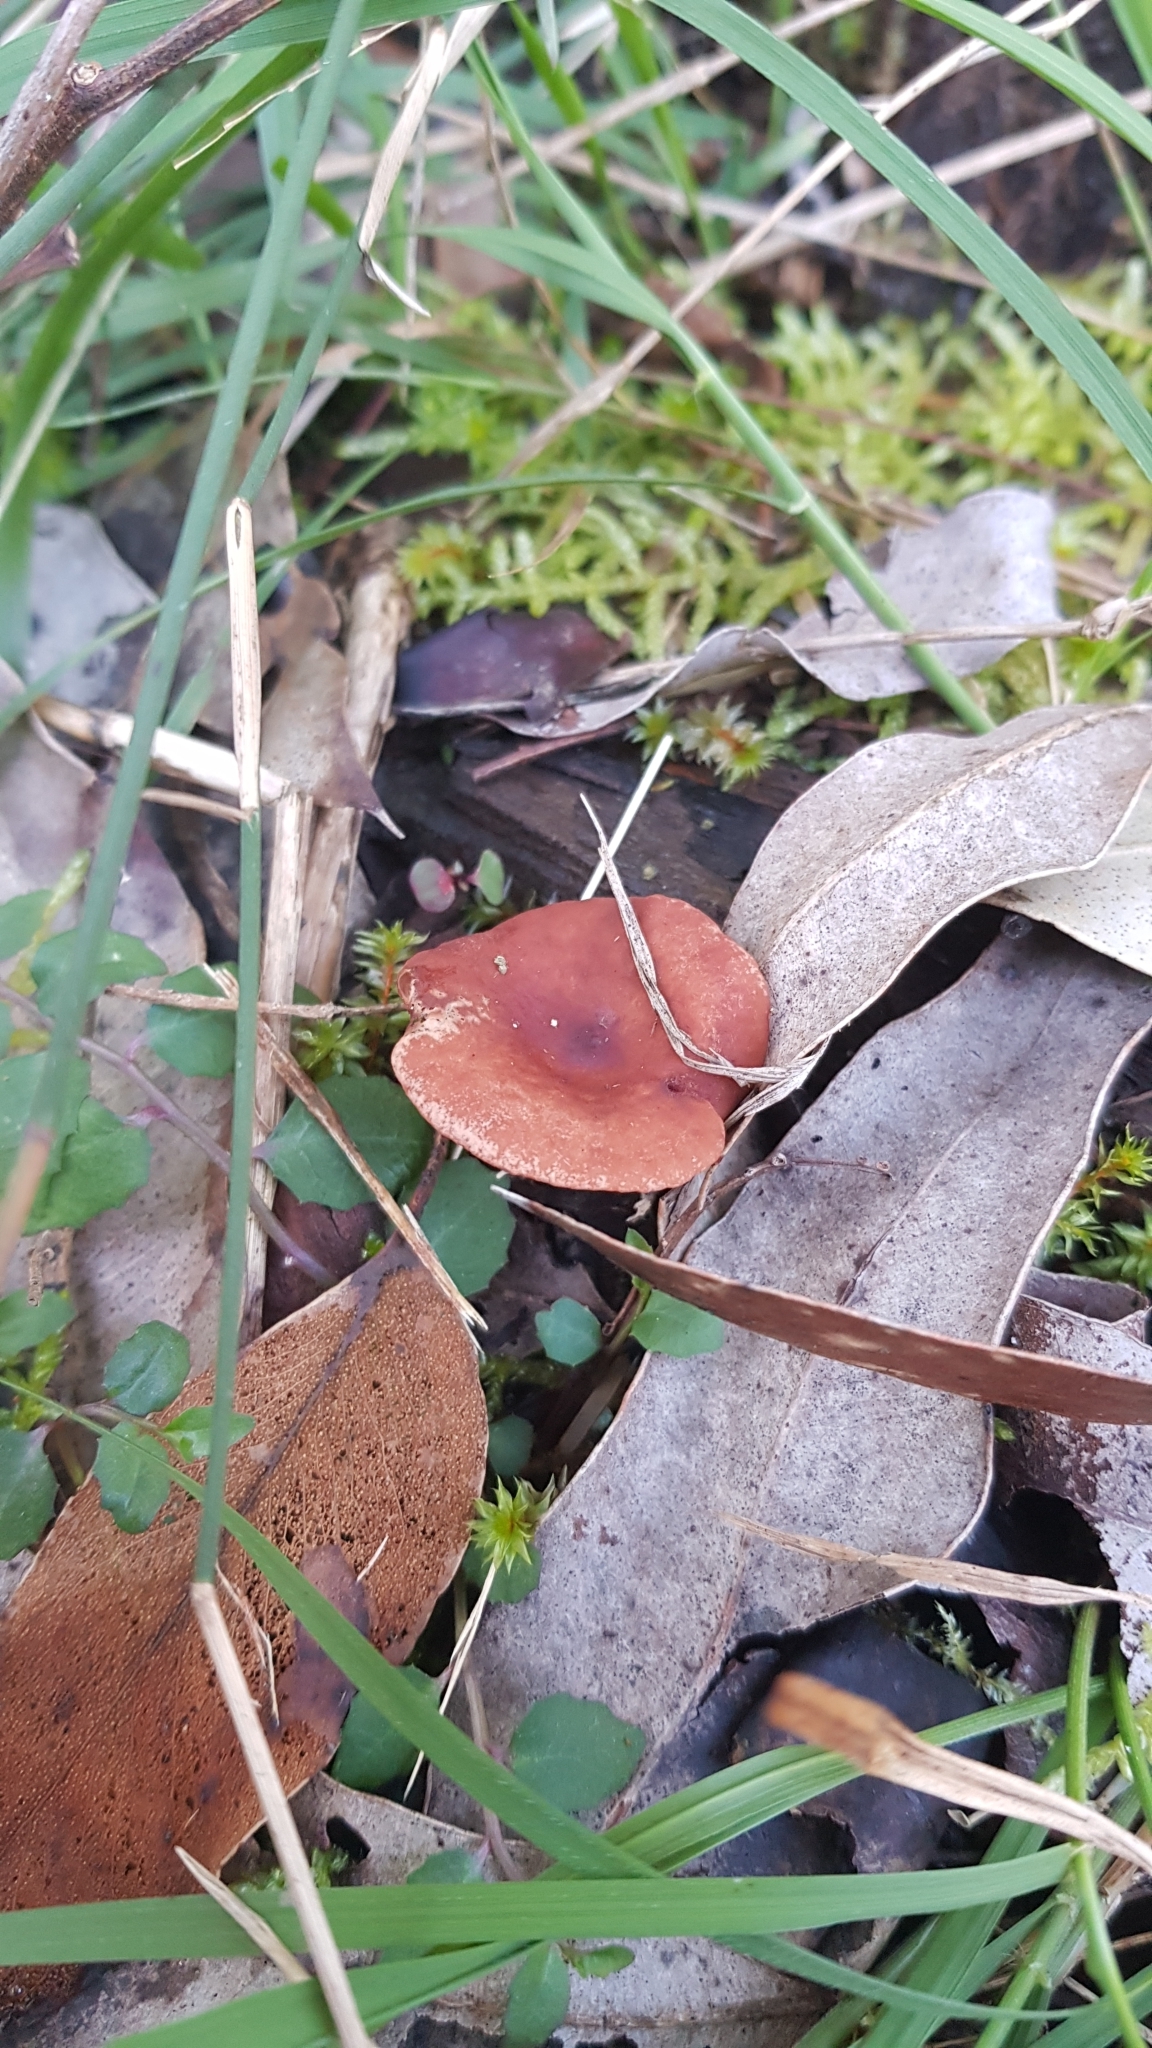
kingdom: Fungi
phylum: Basidiomycota
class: Agaricomycetes
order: Russulales
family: Russulaceae
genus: Lactarius
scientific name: Lactarius eucalypti
